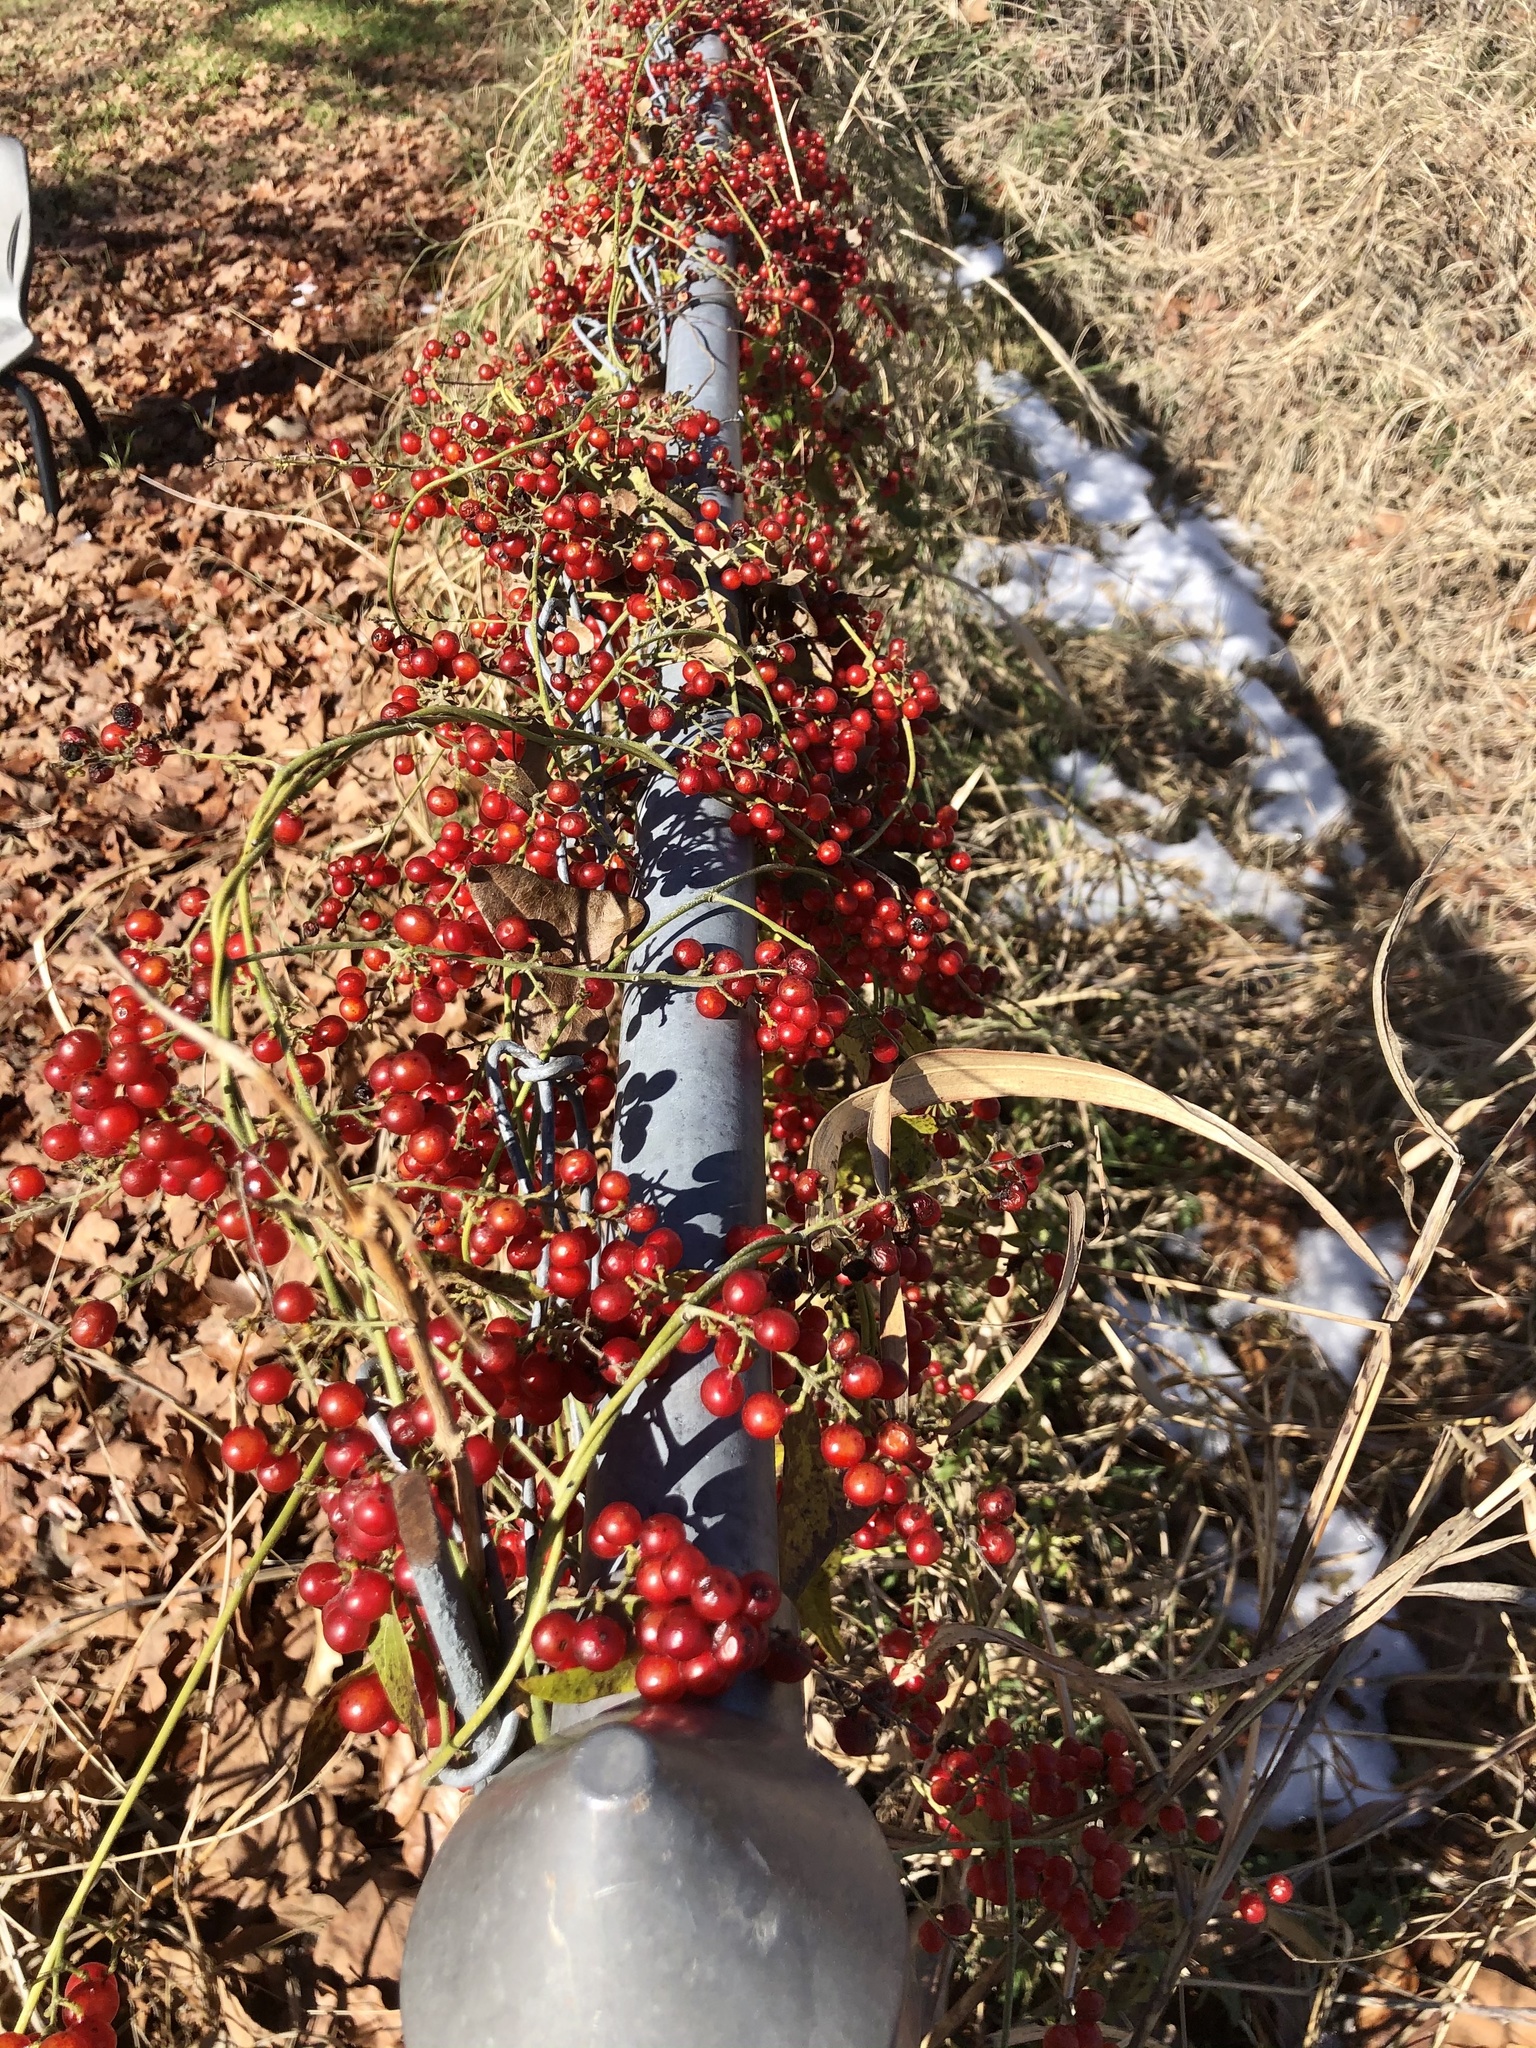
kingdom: Plantae
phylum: Tracheophyta
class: Magnoliopsida
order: Ranunculales
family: Menispermaceae
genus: Cocculus
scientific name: Cocculus carolinus
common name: Carolina moonseed
